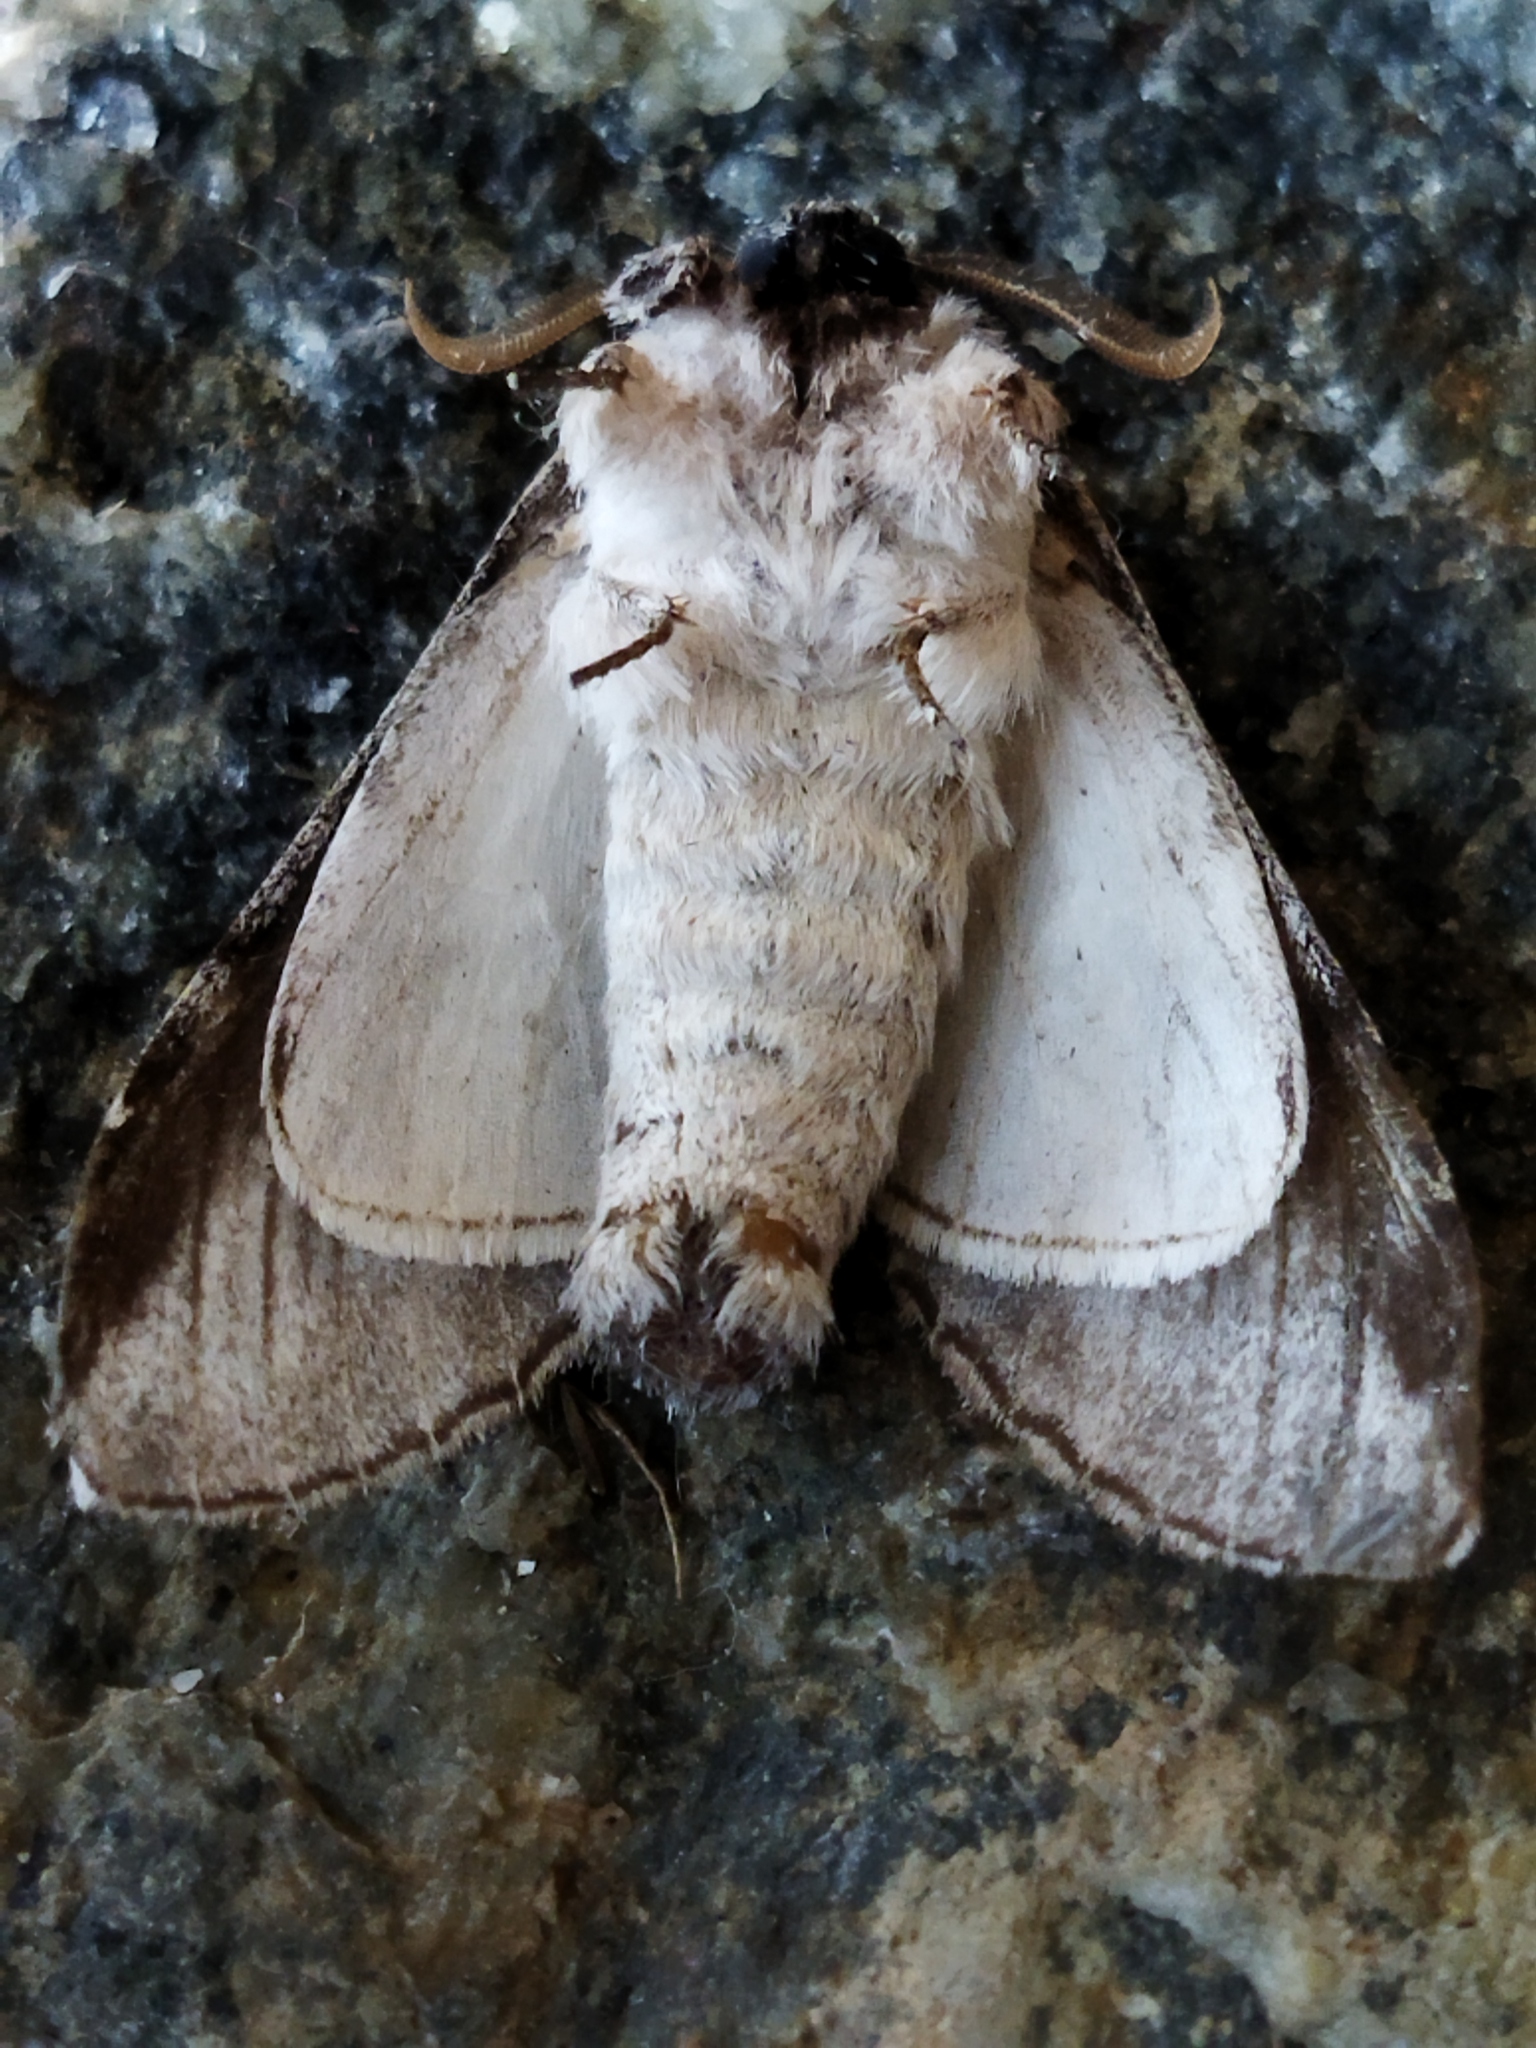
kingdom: Animalia
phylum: Arthropoda
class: Insecta
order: Lepidoptera
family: Notodontidae
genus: Pheosia
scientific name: Pheosia tremula
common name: Swallow prominent
